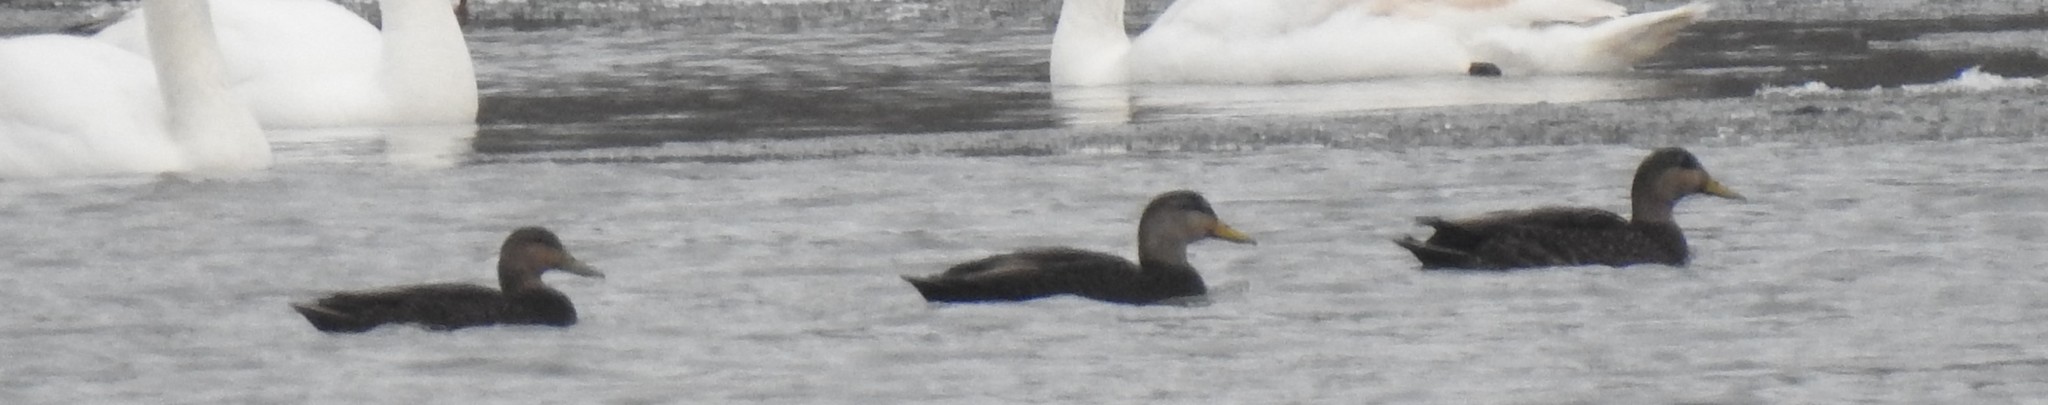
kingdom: Animalia
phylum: Chordata
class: Aves
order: Anseriformes
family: Anatidae
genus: Anas
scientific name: Anas rubripes
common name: American black duck
